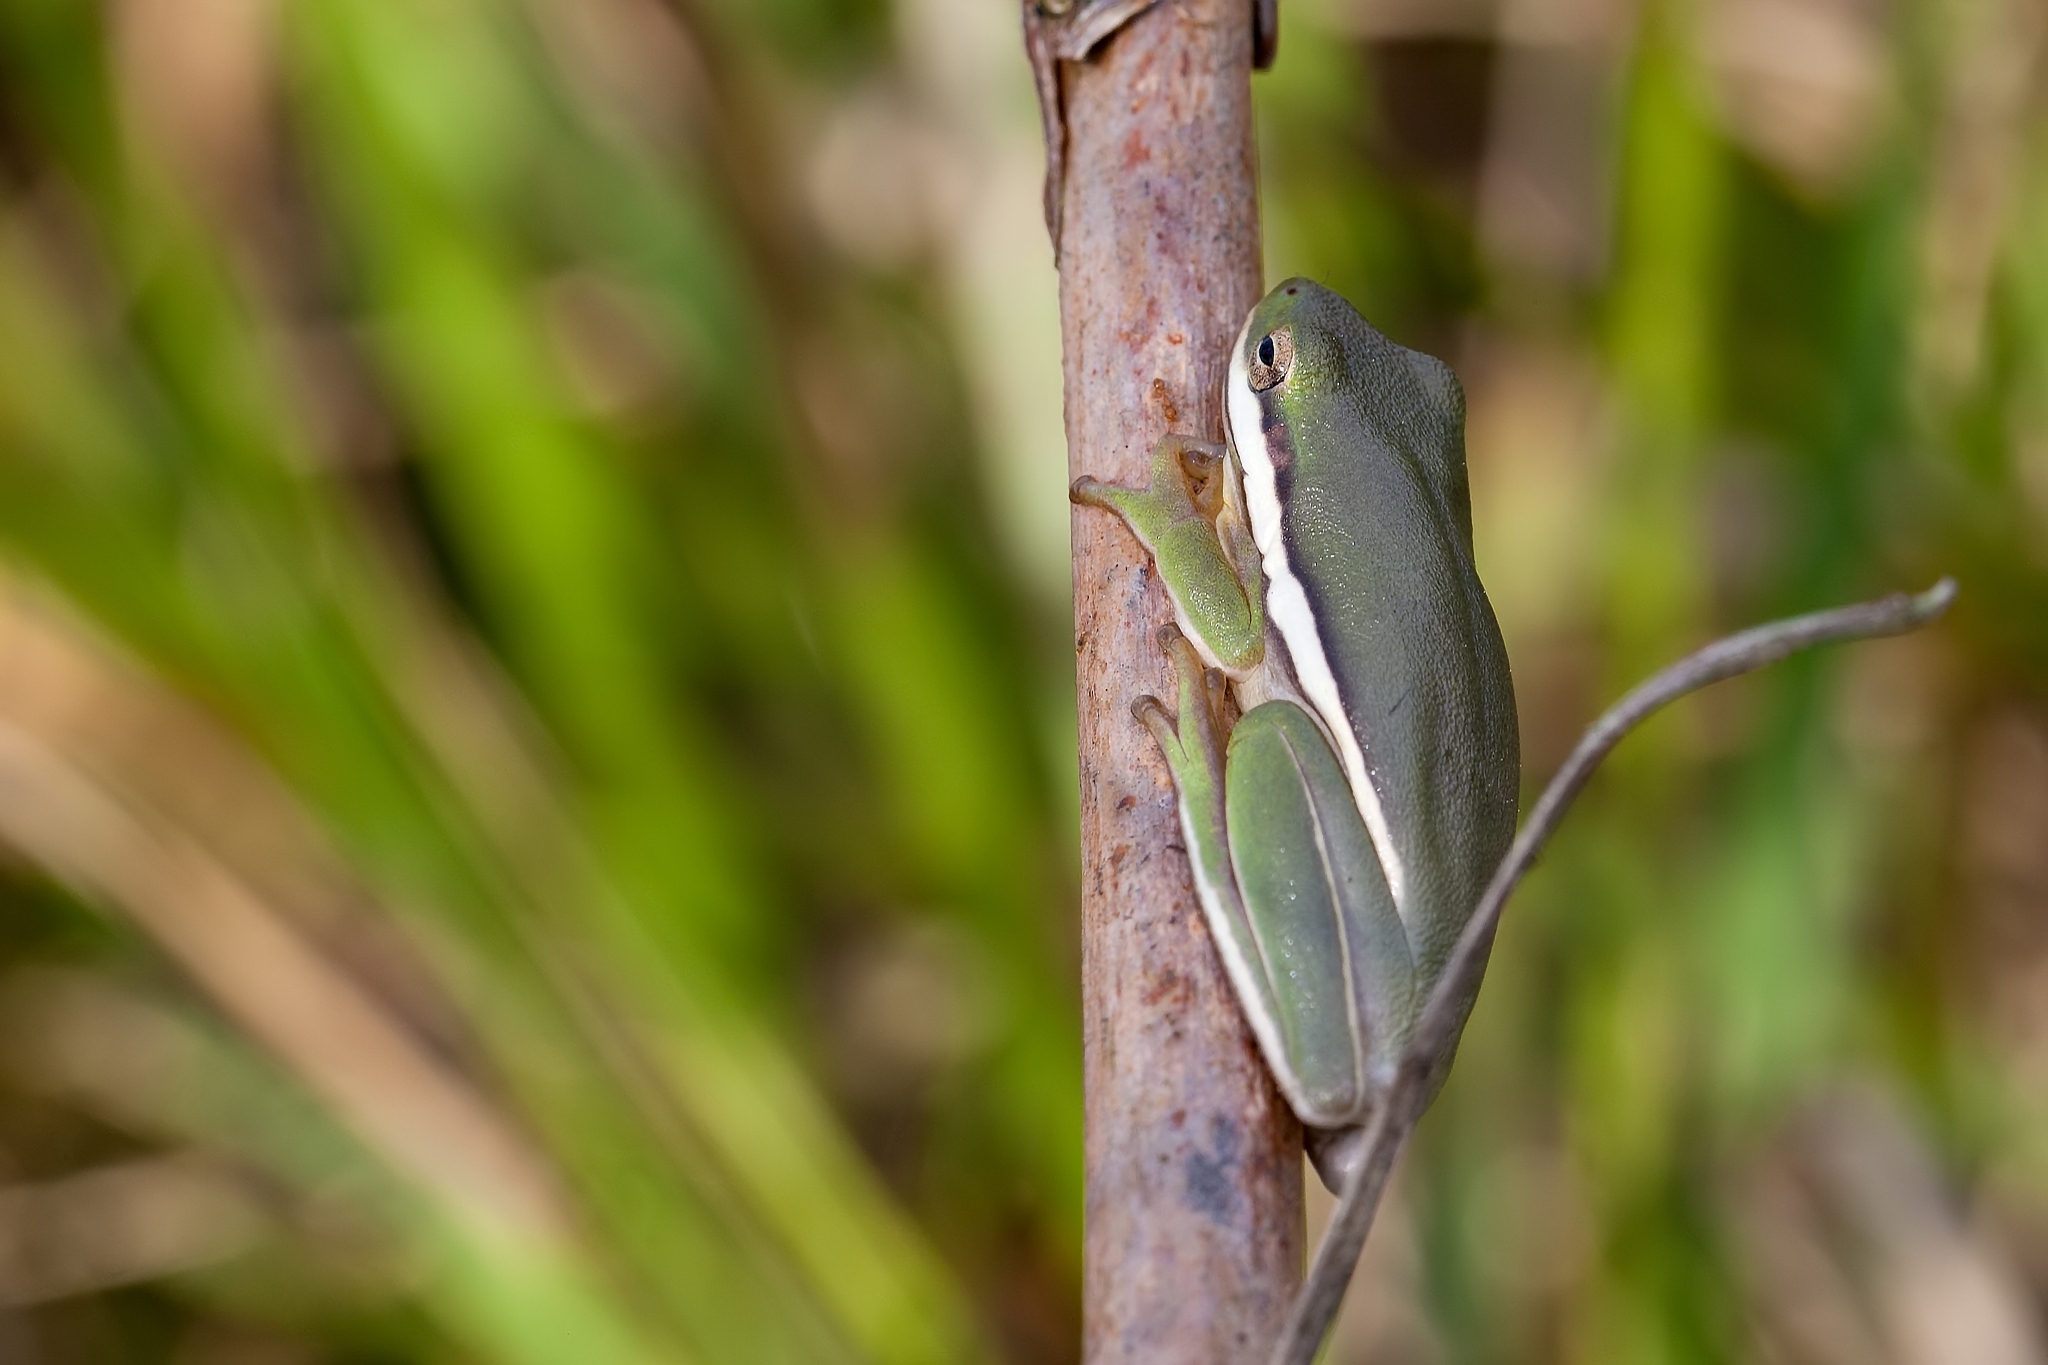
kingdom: Animalia
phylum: Chordata
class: Amphibia
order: Anura
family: Hylidae
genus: Dryophytes
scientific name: Dryophytes cinereus
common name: Green treefrog
